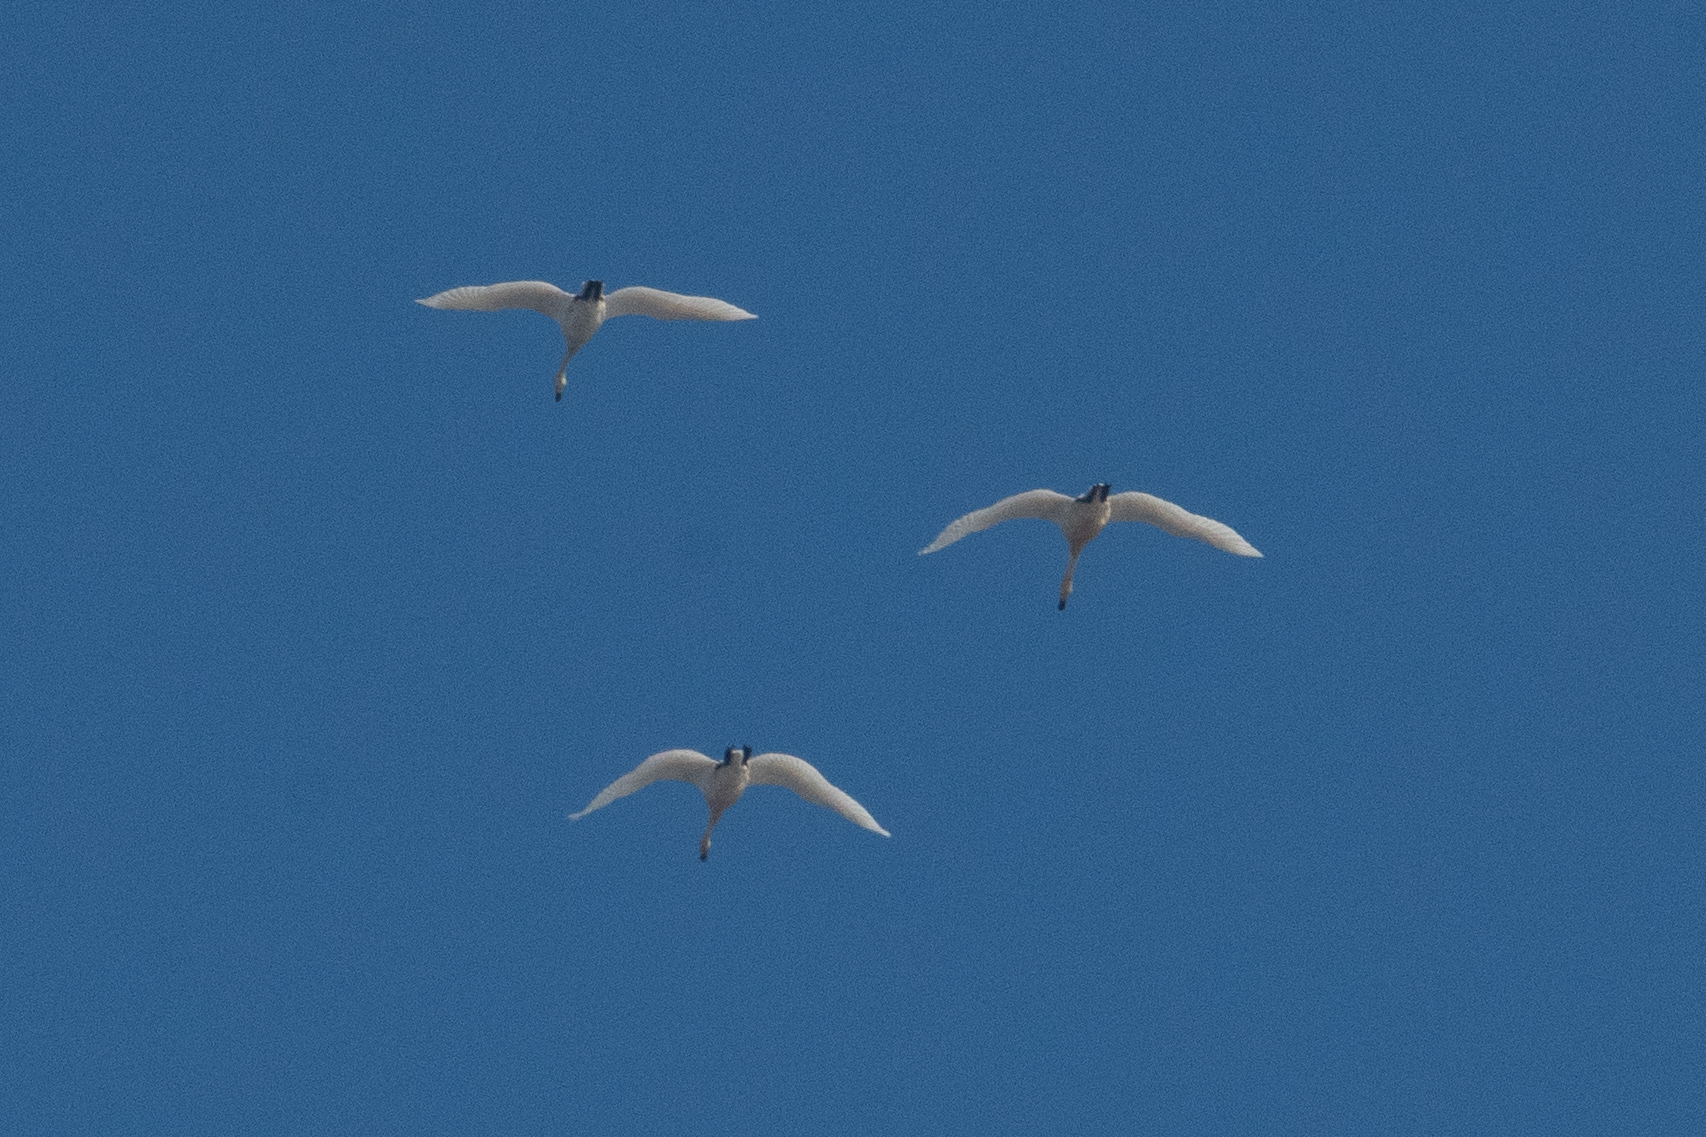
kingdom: Animalia
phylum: Chordata
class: Aves
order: Anseriformes
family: Anatidae
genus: Cygnus
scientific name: Cygnus columbianus
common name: Tundra swan
